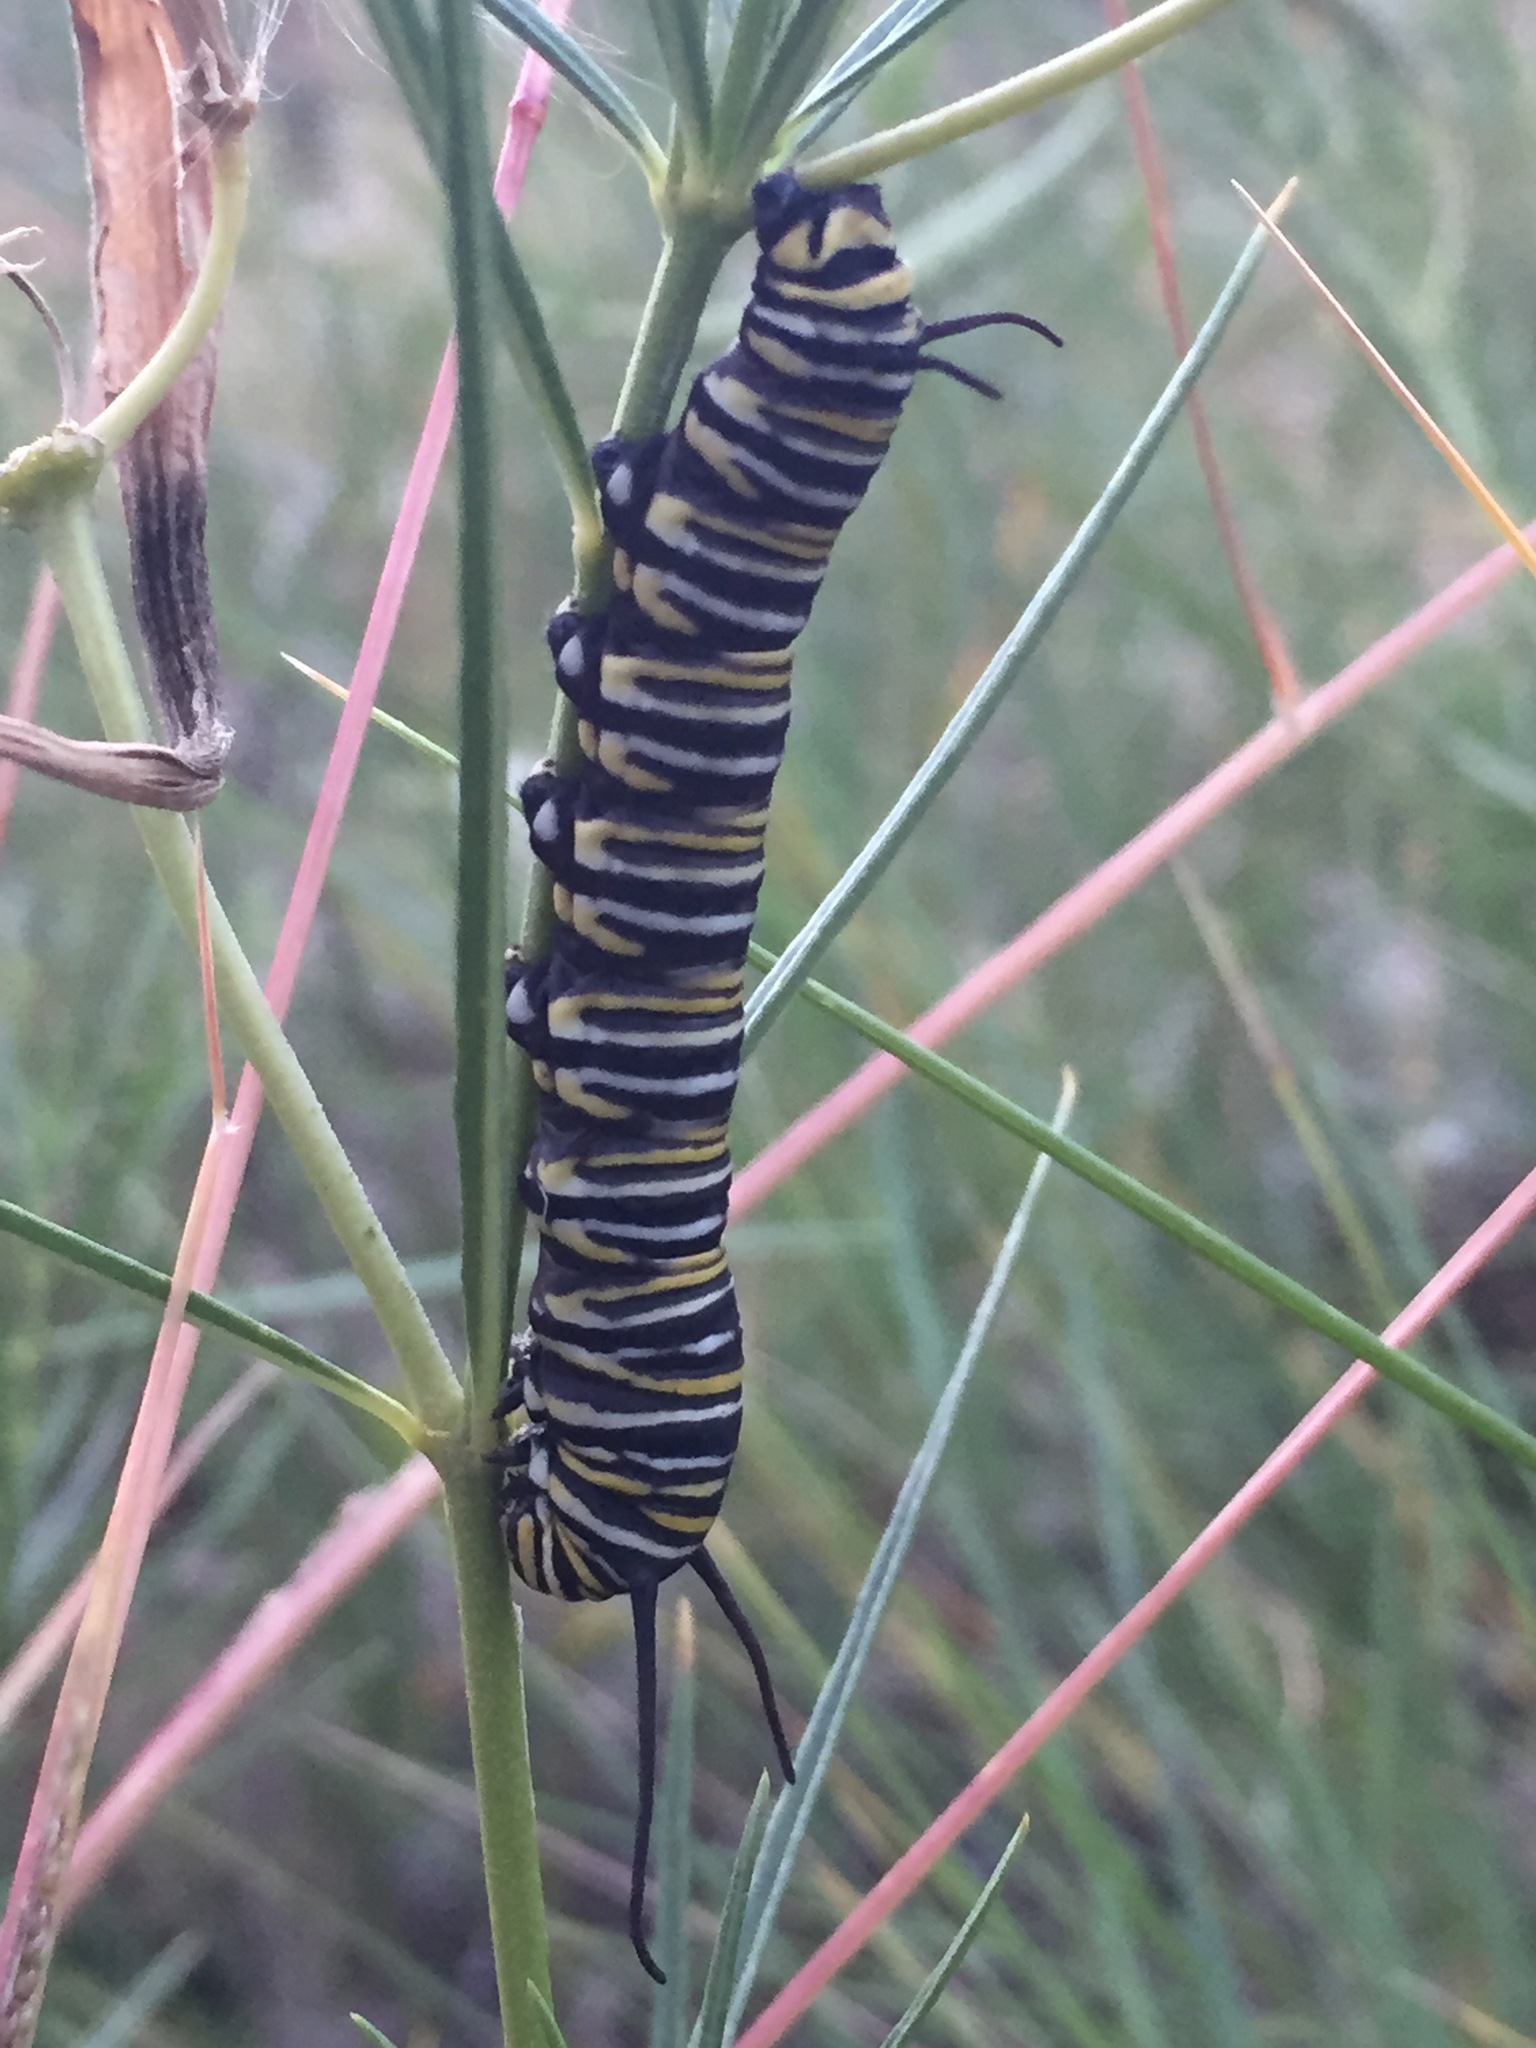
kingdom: Animalia
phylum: Arthropoda
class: Insecta
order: Lepidoptera
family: Nymphalidae
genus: Danaus
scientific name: Danaus plexippus
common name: Monarch
